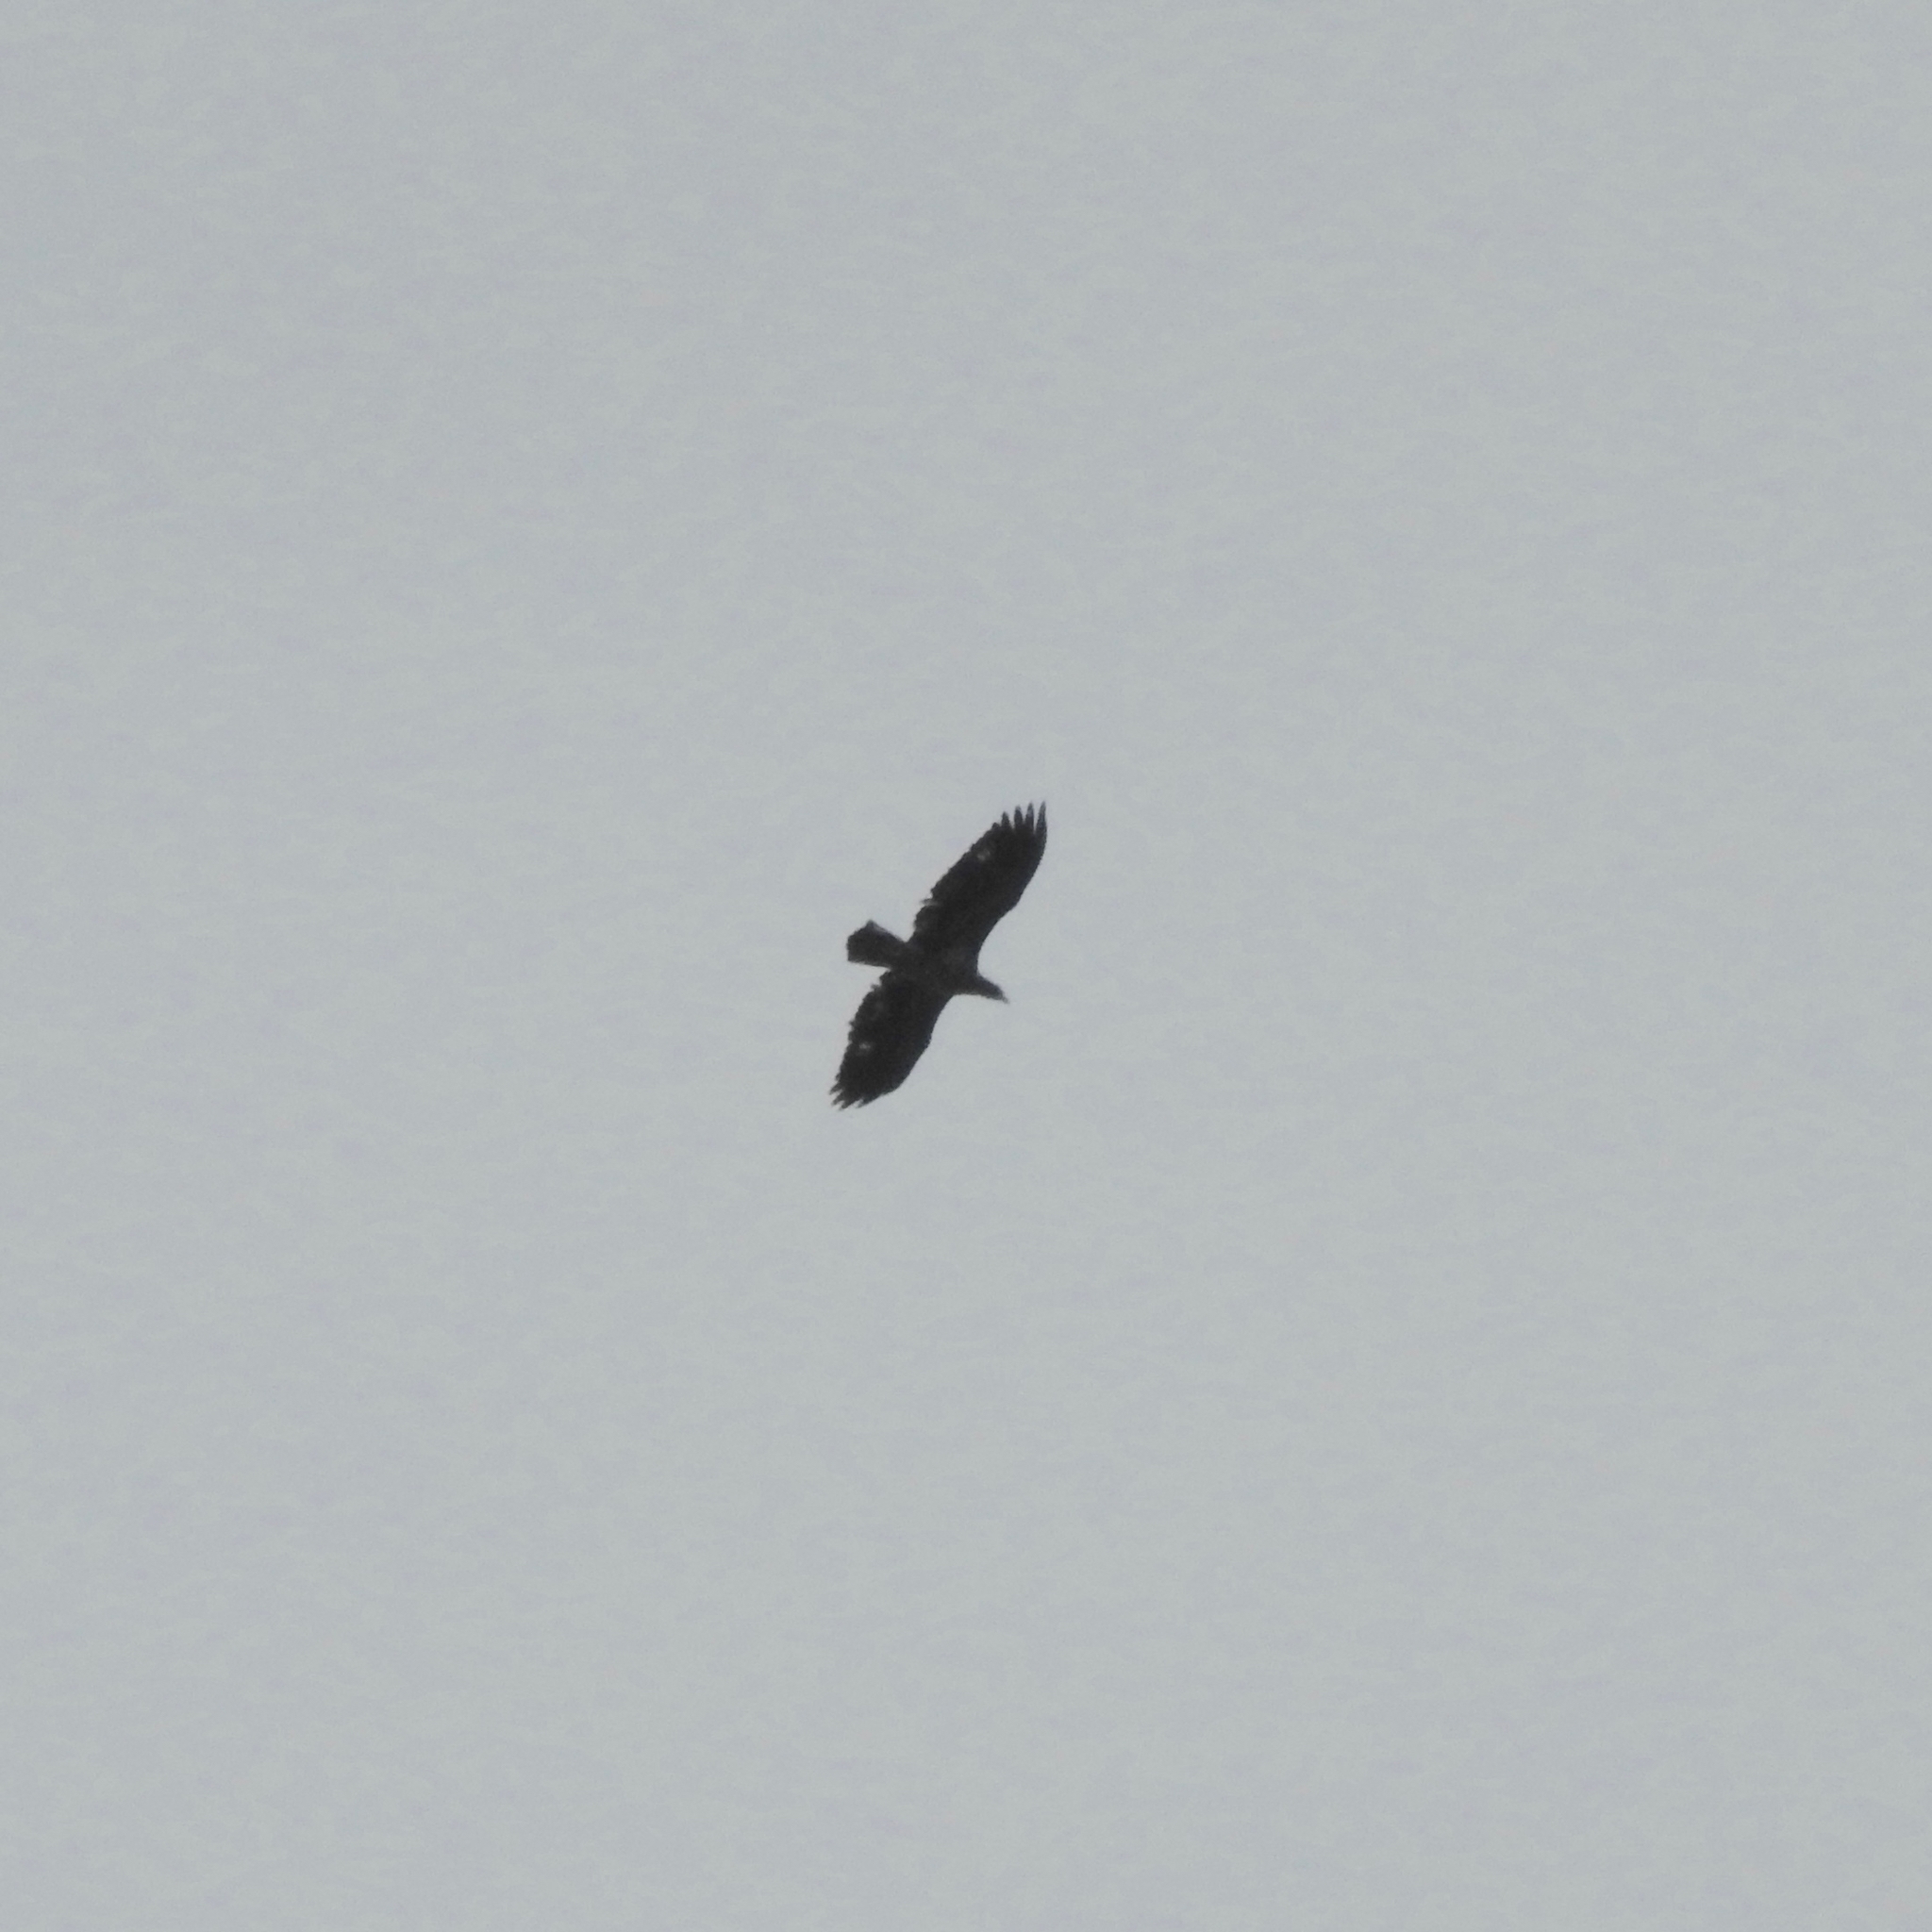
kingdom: Animalia
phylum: Chordata
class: Aves
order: Accipitriformes
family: Accipitridae
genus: Haliaeetus
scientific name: Haliaeetus leucocephalus
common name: Bald eagle
